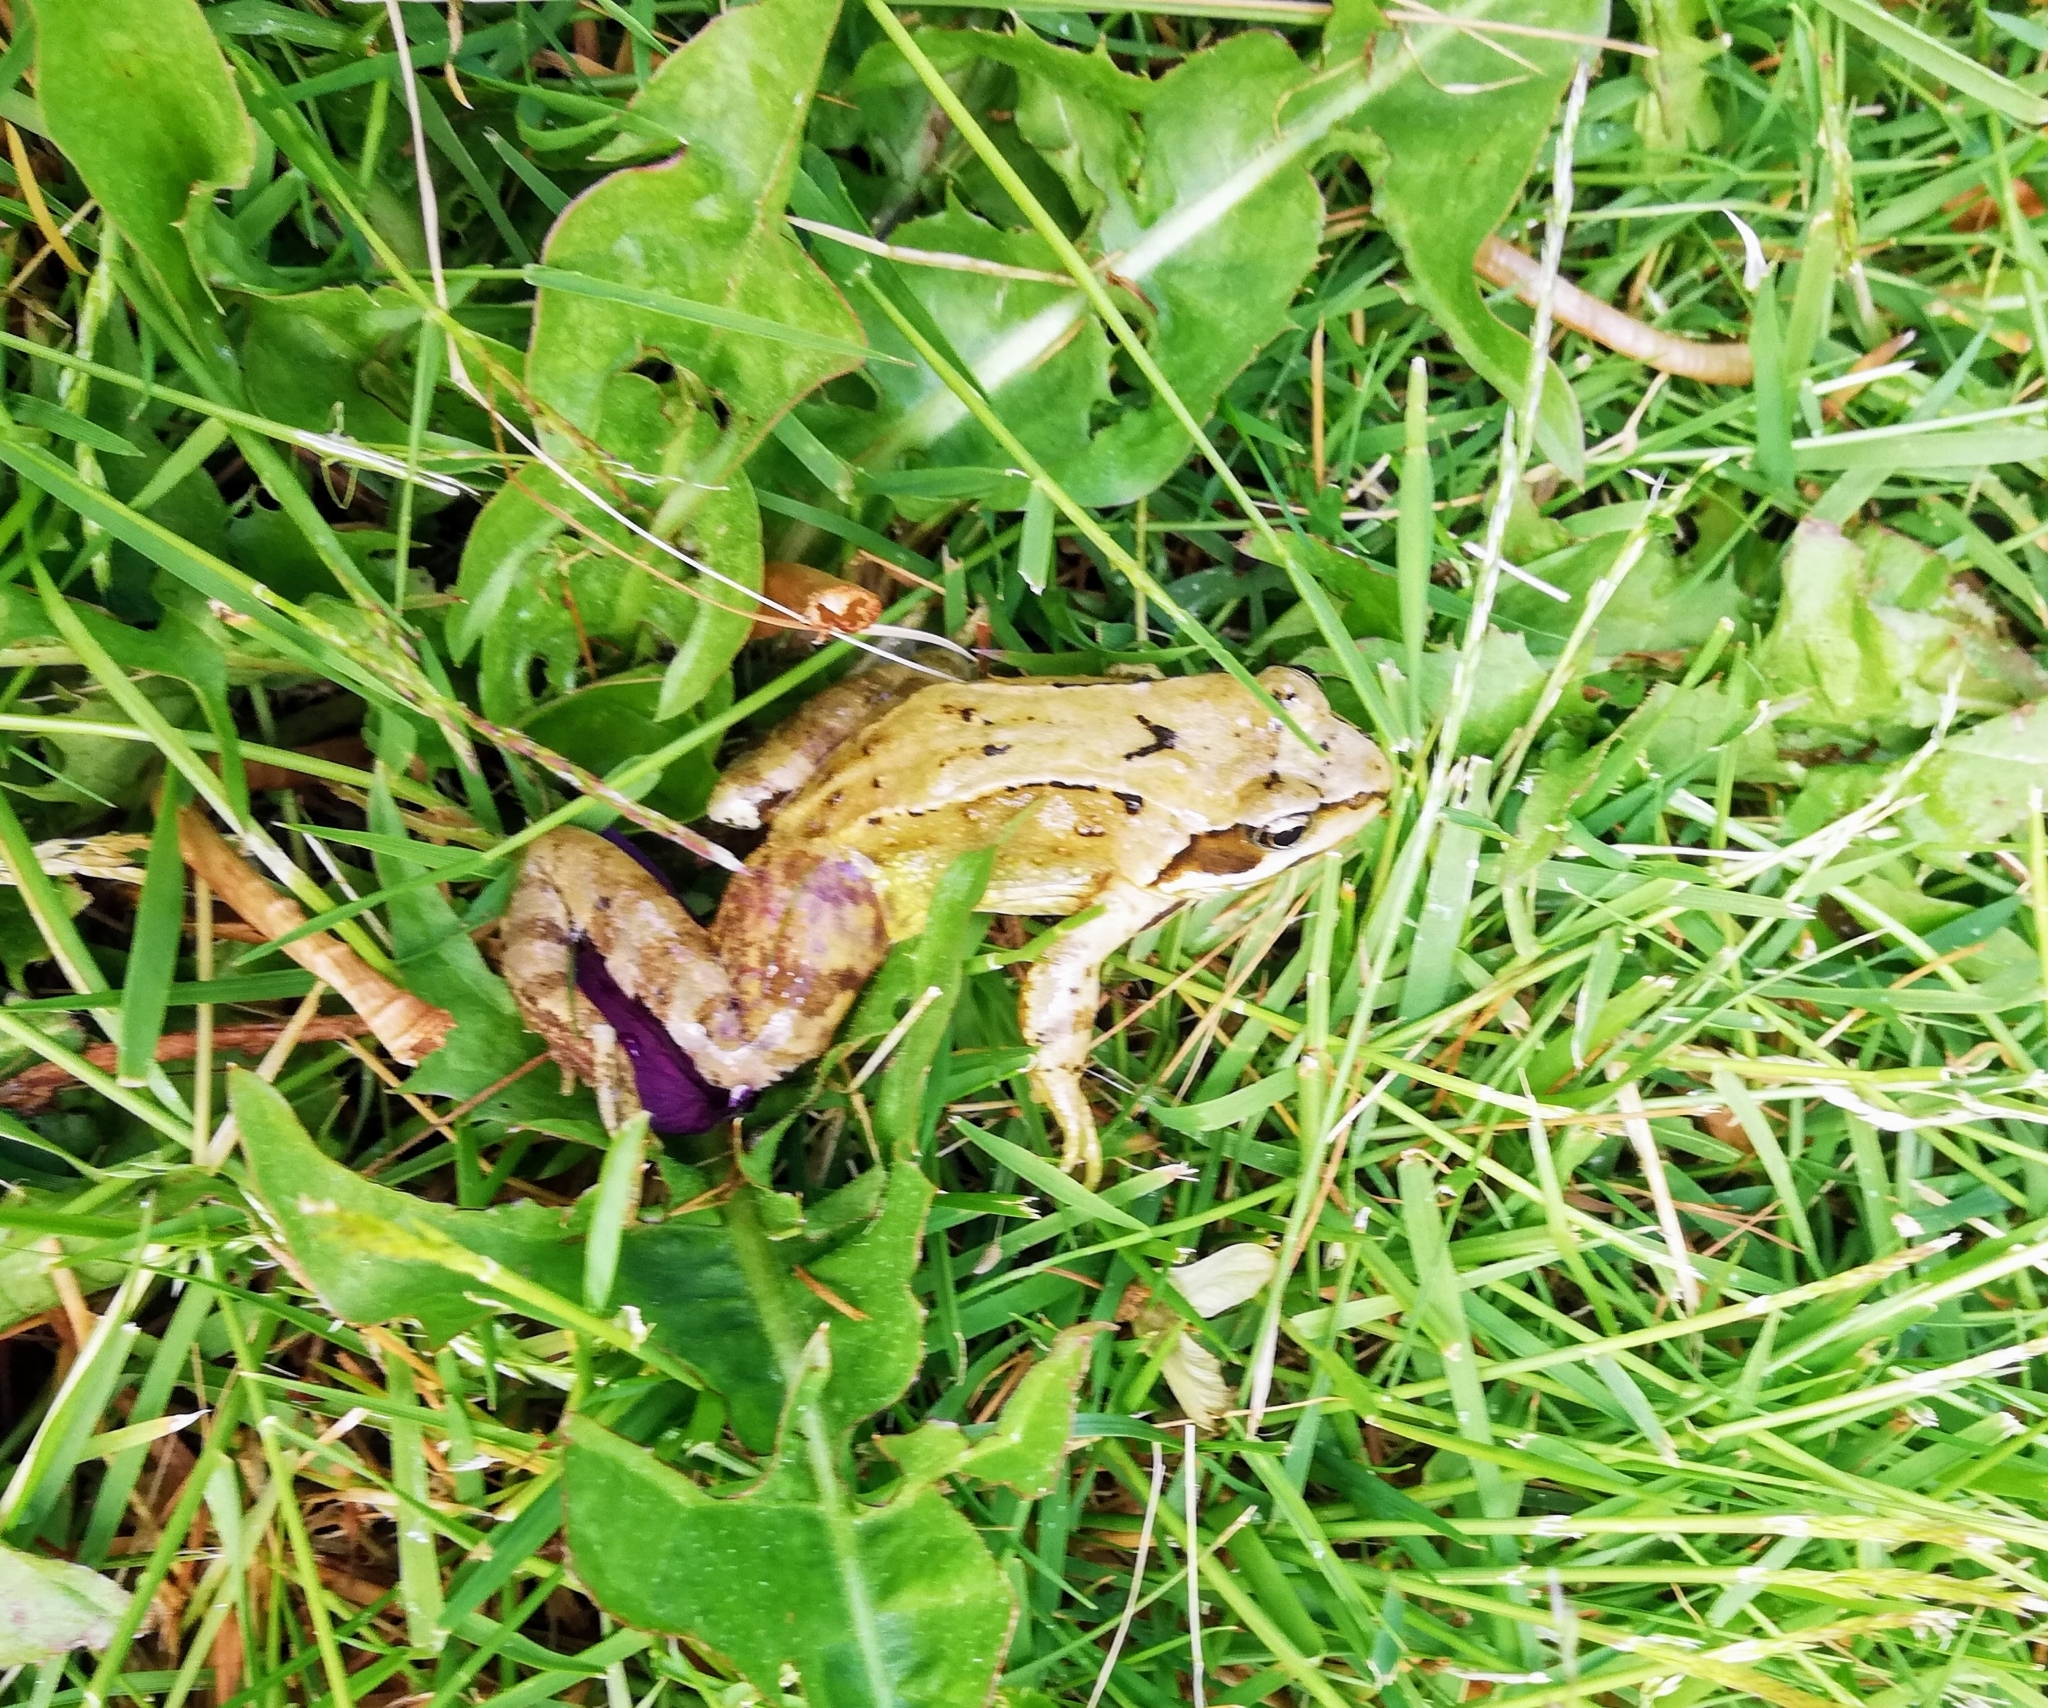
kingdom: Animalia
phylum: Chordata
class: Amphibia
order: Anura
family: Ranidae
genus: Rana
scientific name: Rana temporaria
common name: Common frog
